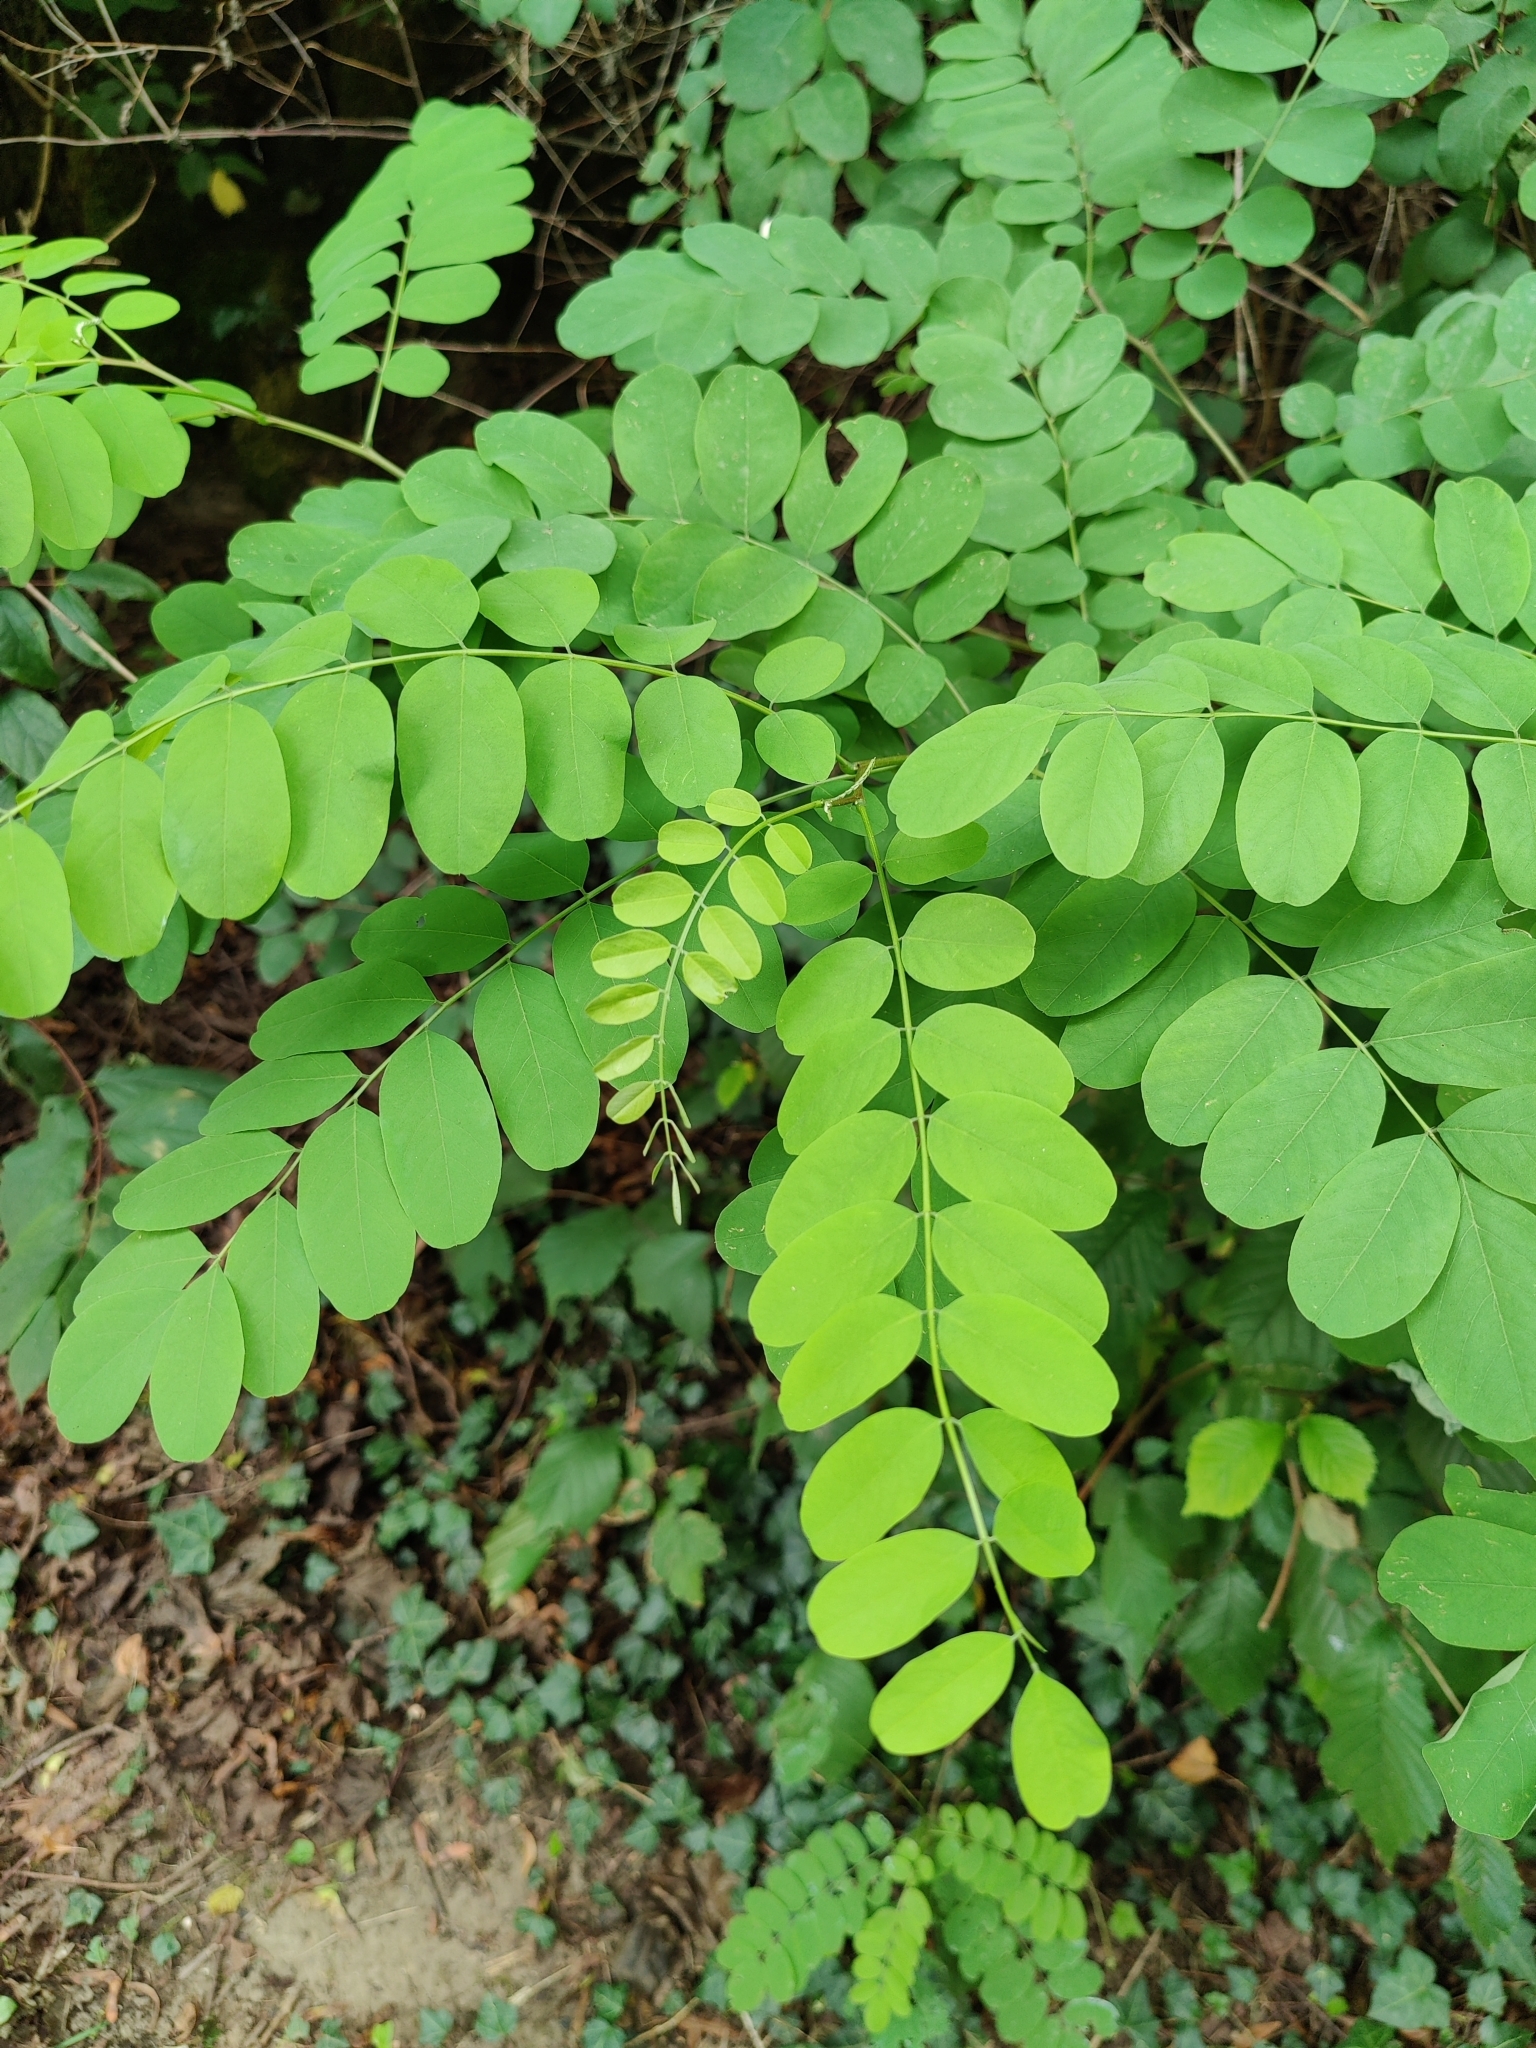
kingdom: Plantae
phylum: Tracheophyta
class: Magnoliopsida
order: Fabales
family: Fabaceae
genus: Robinia
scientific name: Robinia pseudoacacia
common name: Black locust
